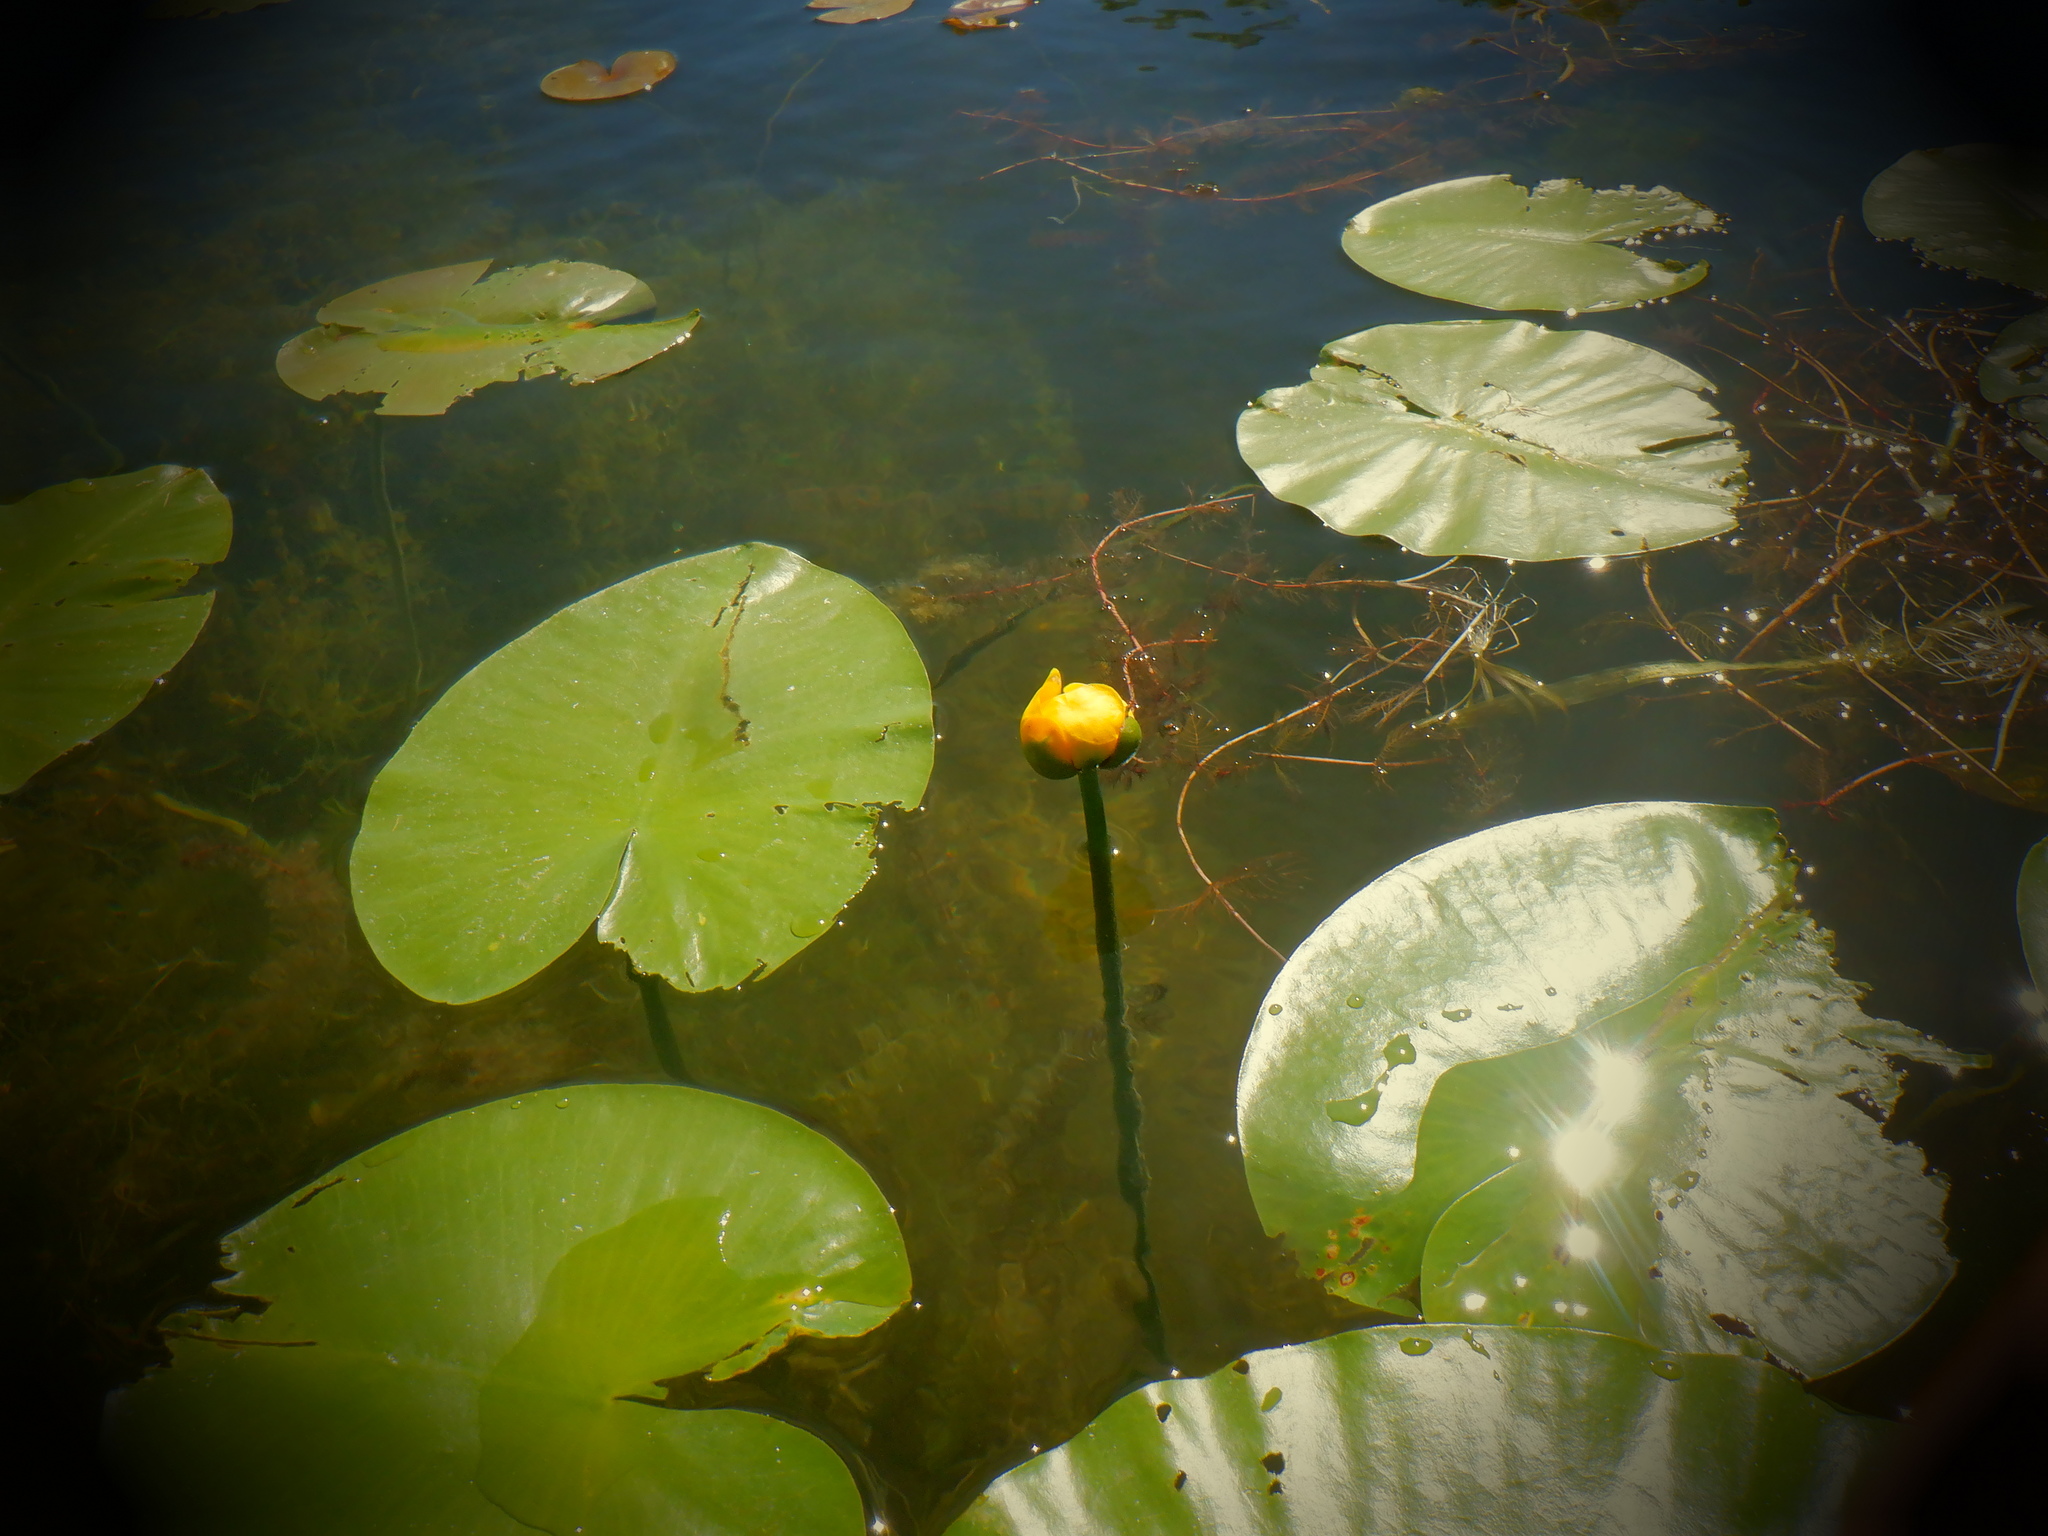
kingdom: Plantae
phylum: Tracheophyta
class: Magnoliopsida
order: Nymphaeales
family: Nymphaeaceae
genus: Nuphar
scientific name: Nuphar variegata
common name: Beaver-root
